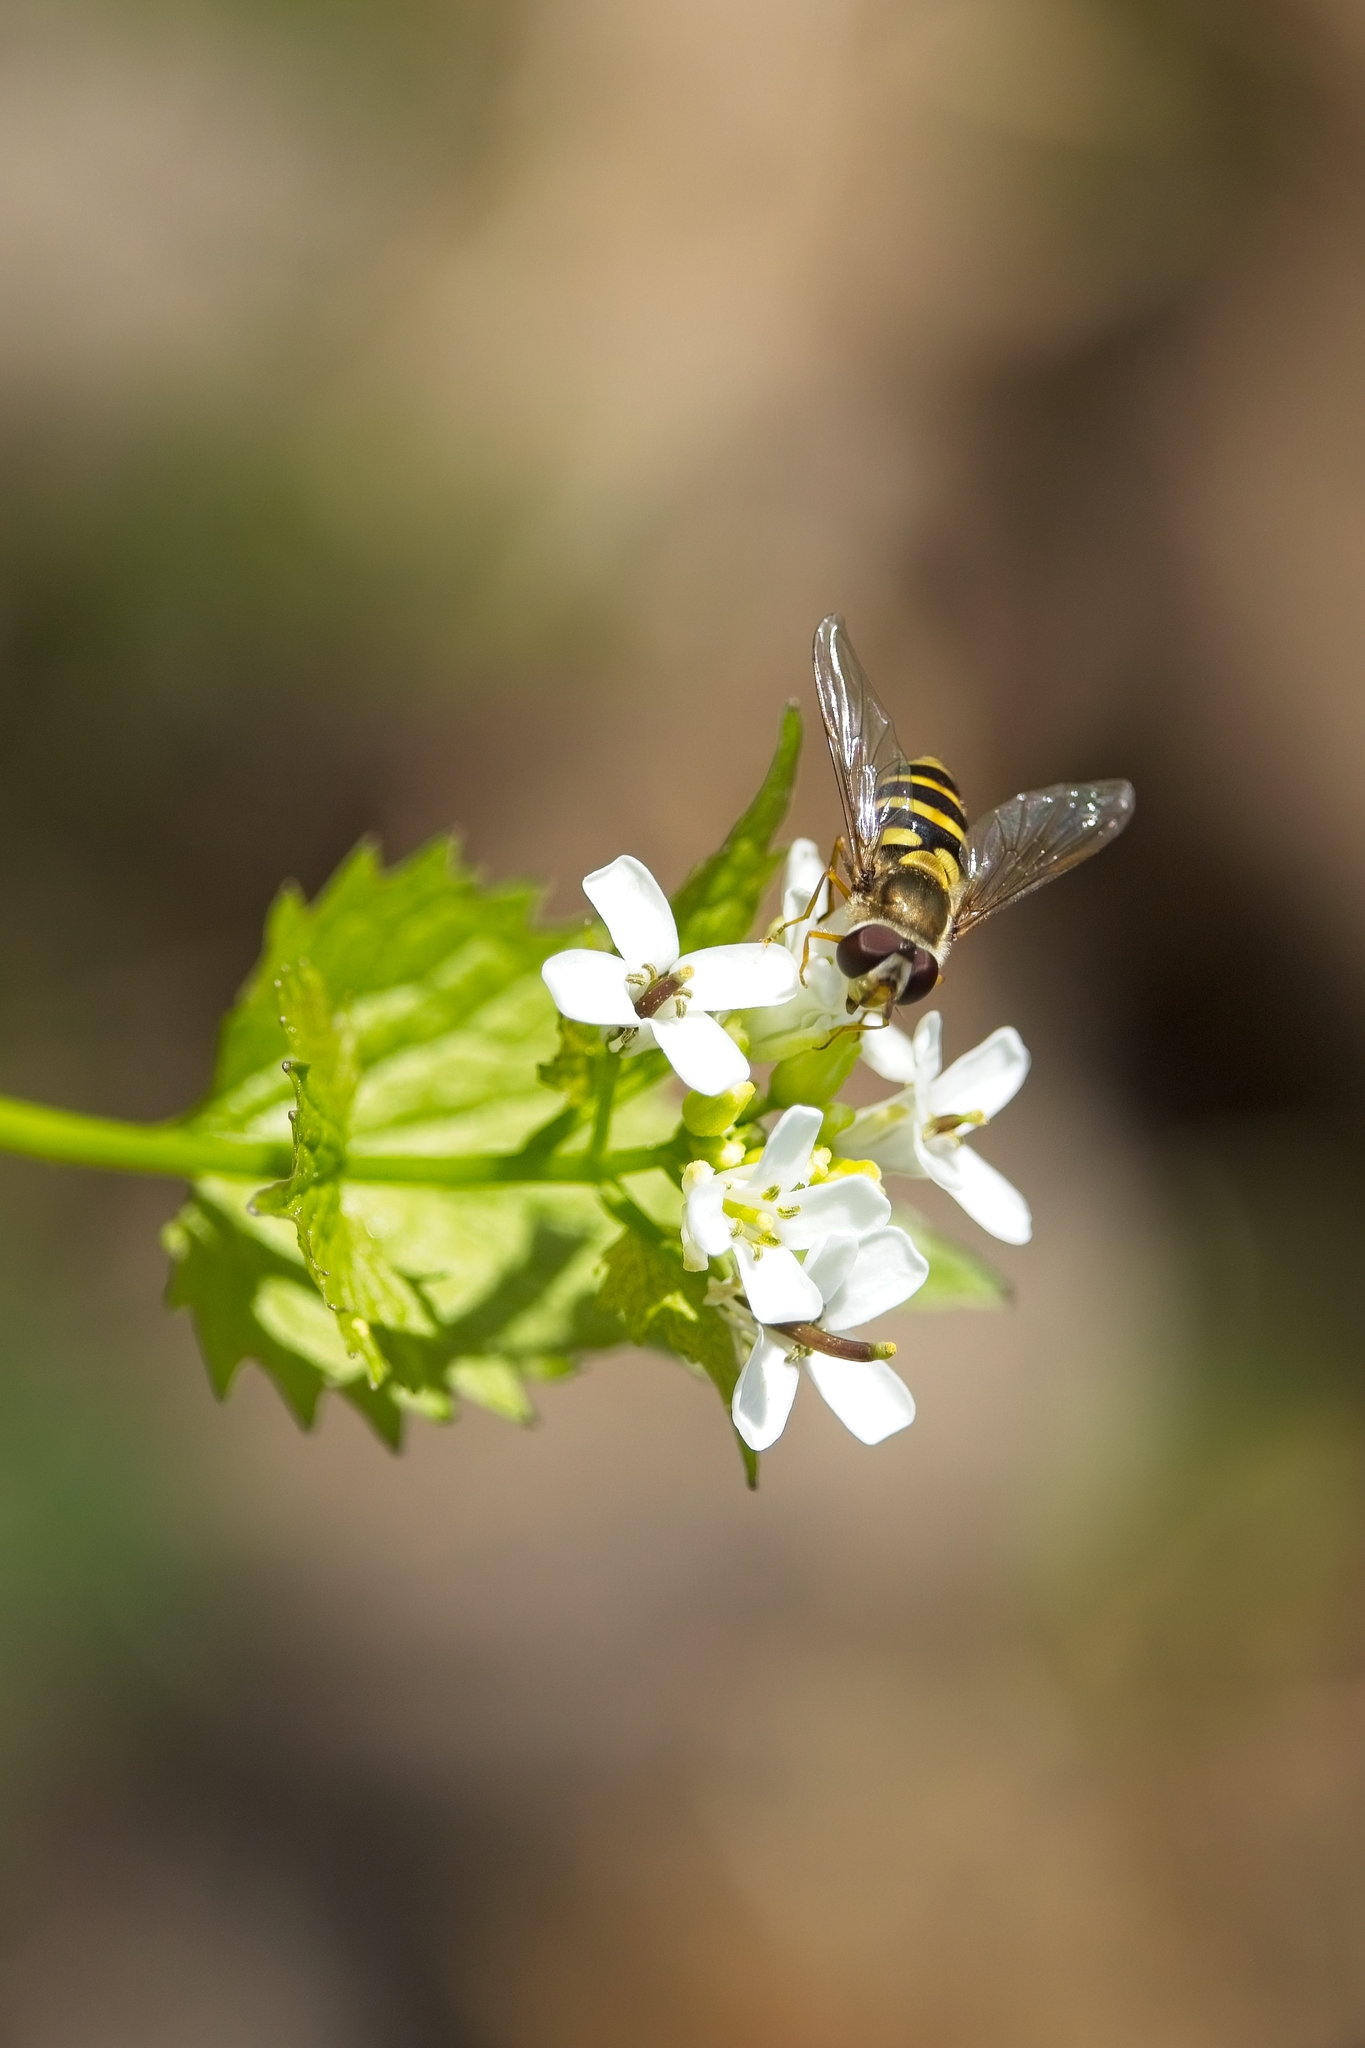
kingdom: Animalia
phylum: Arthropoda
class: Insecta
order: Diptera
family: Syrphidae
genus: Syrphus
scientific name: Syrphus rectus
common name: Yellow-legged flower fly
